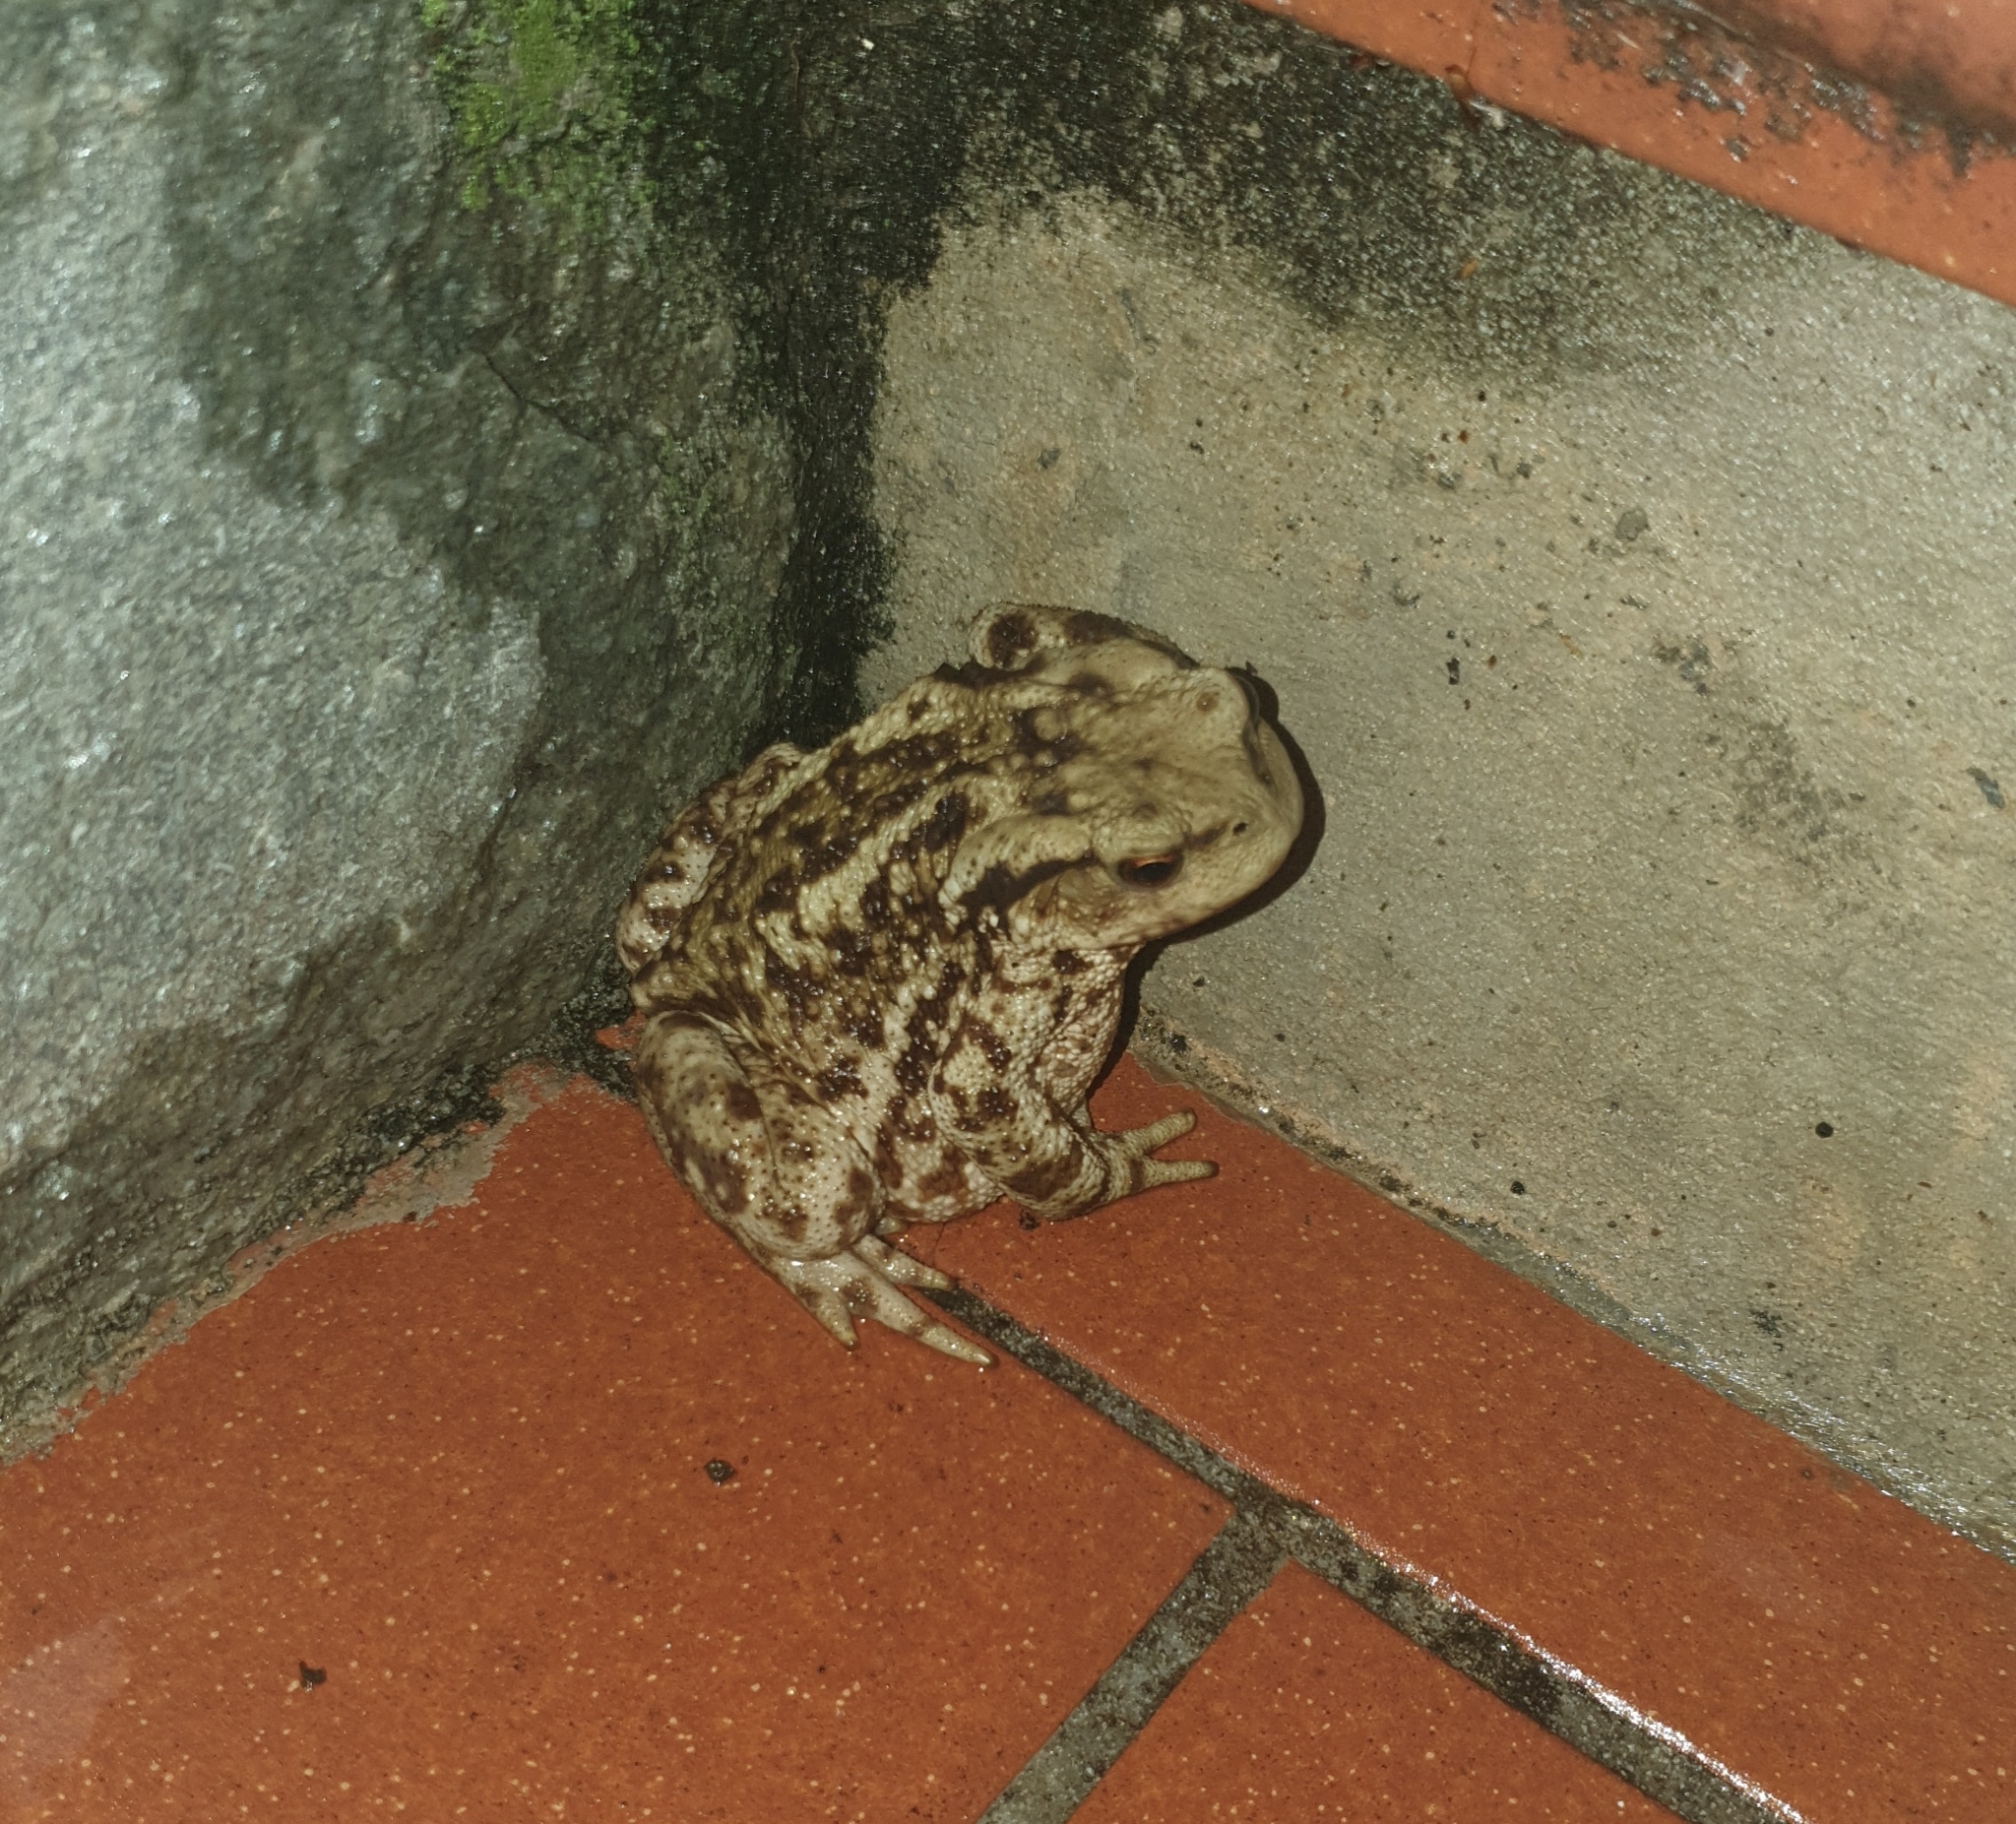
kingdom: Animalia
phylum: Chordata
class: Amphibia
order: Anura
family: Bufonidae
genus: Bufo
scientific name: Bufo bufo
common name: Common toad
